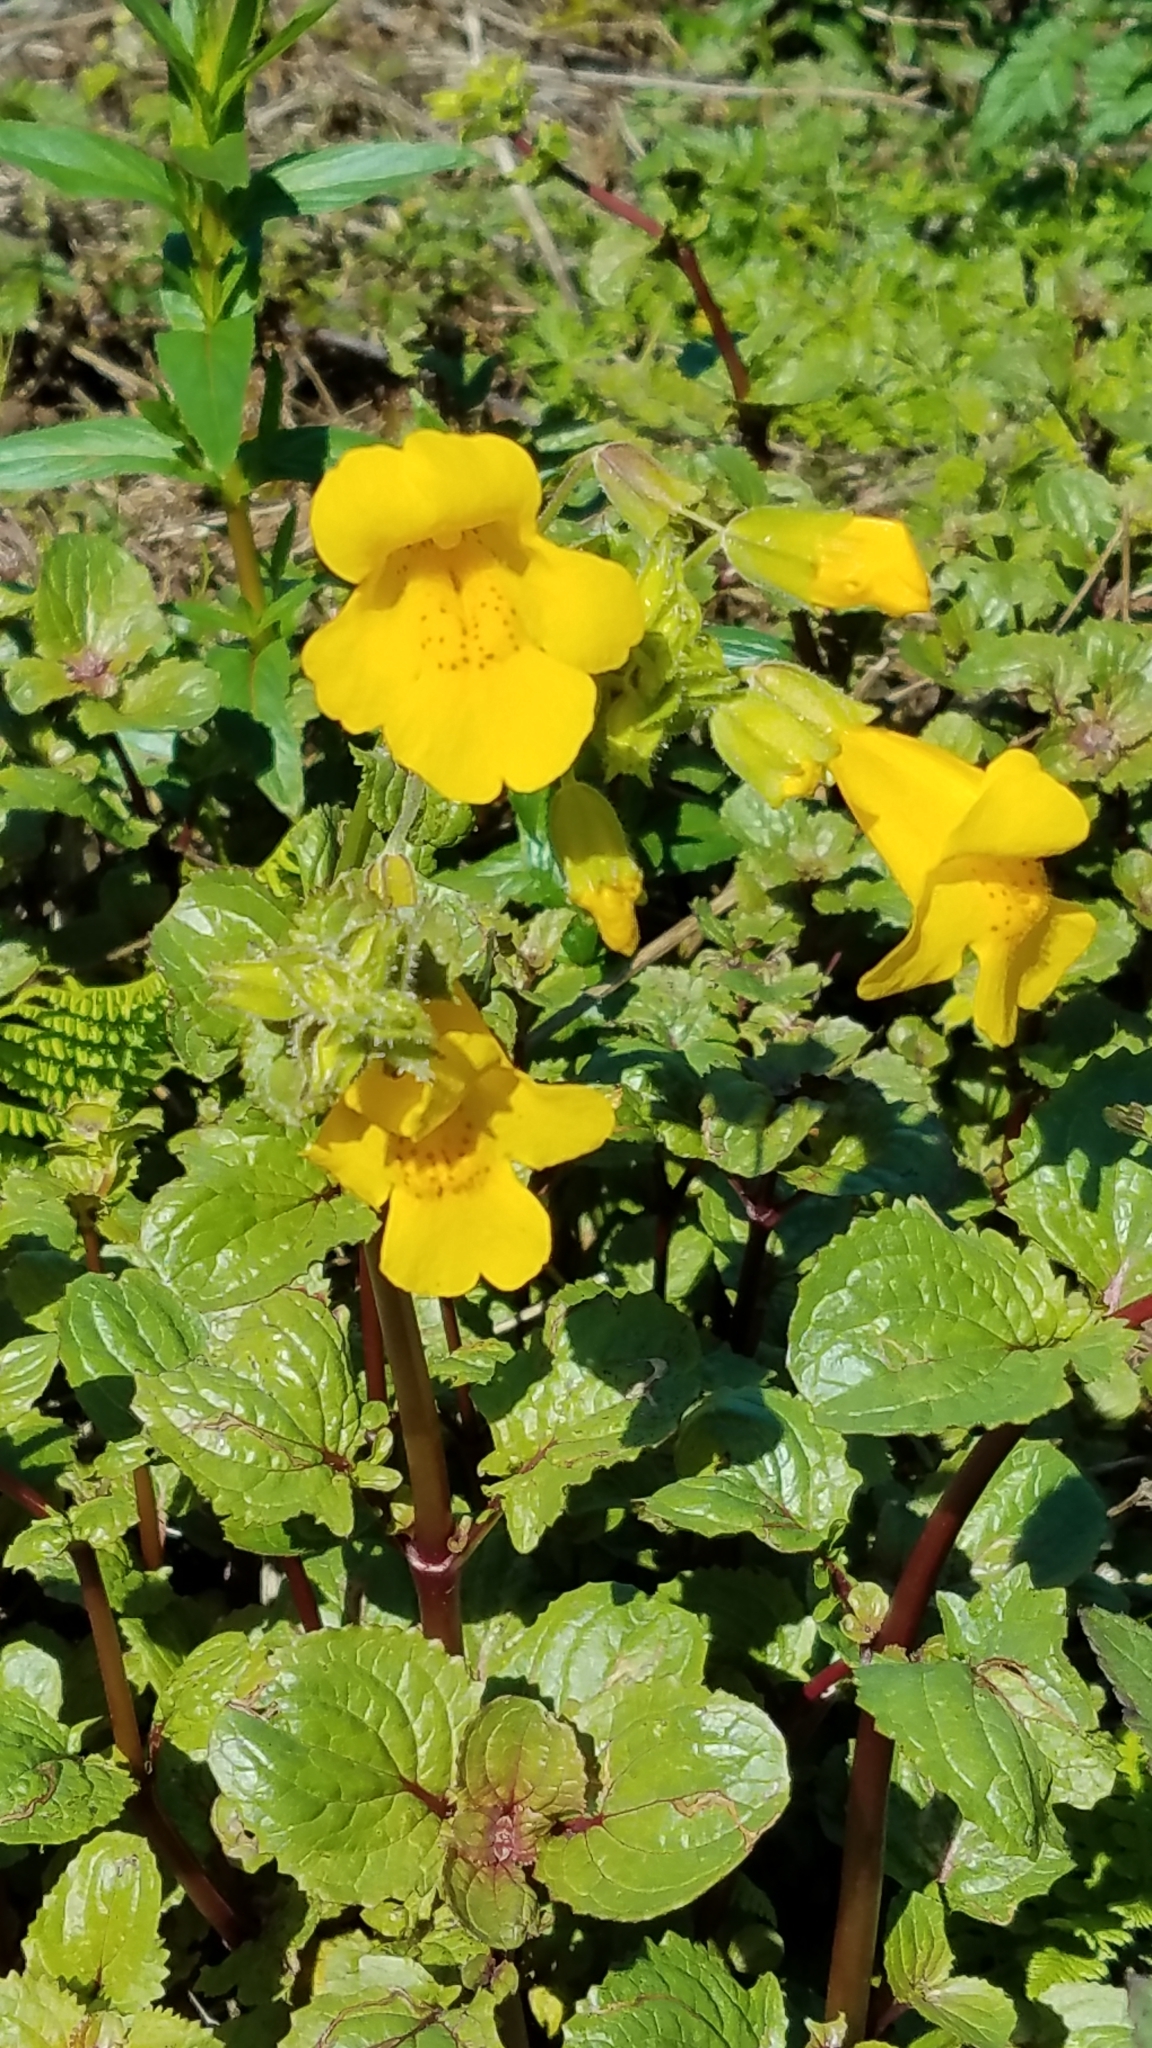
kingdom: Plantae
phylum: Tracheophyta
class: Magnoliopsida
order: Lamiales
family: Phrymaceae
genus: Erythranthe
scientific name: Erythranthe guttata
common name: Monkeyflower
